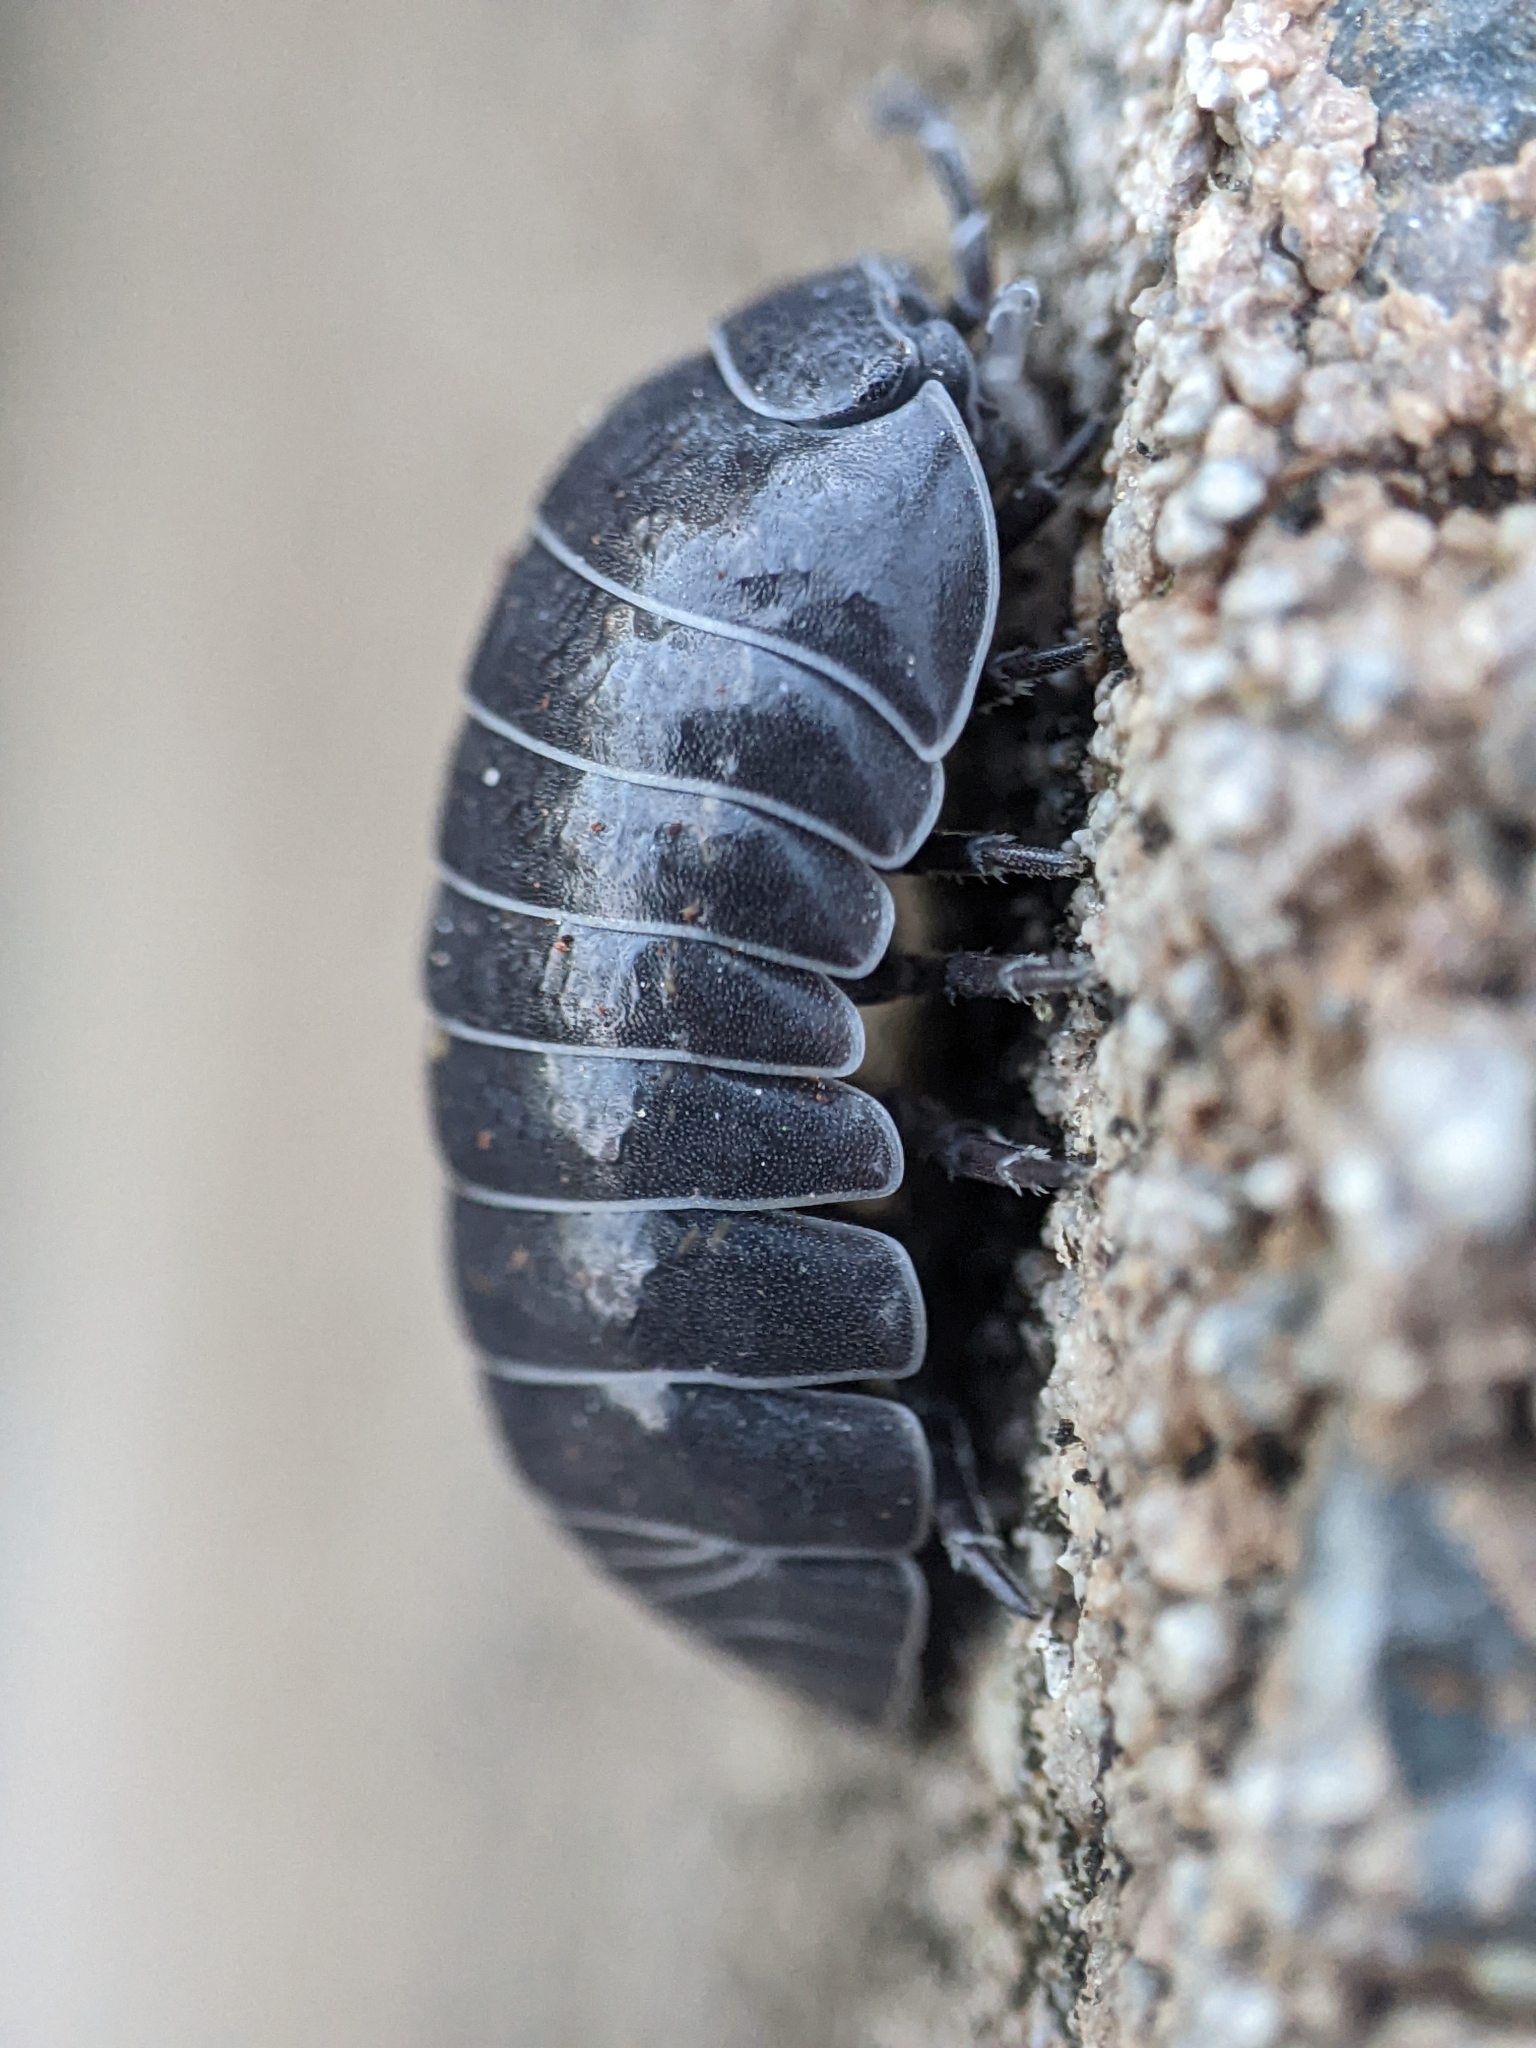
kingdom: Animalia
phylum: Arthropoda
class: Malacostraca
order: Isopoda
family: Armadillidiidae
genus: Armadillidium
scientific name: Armadillidium vulgare
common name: Common pill woodlouse
